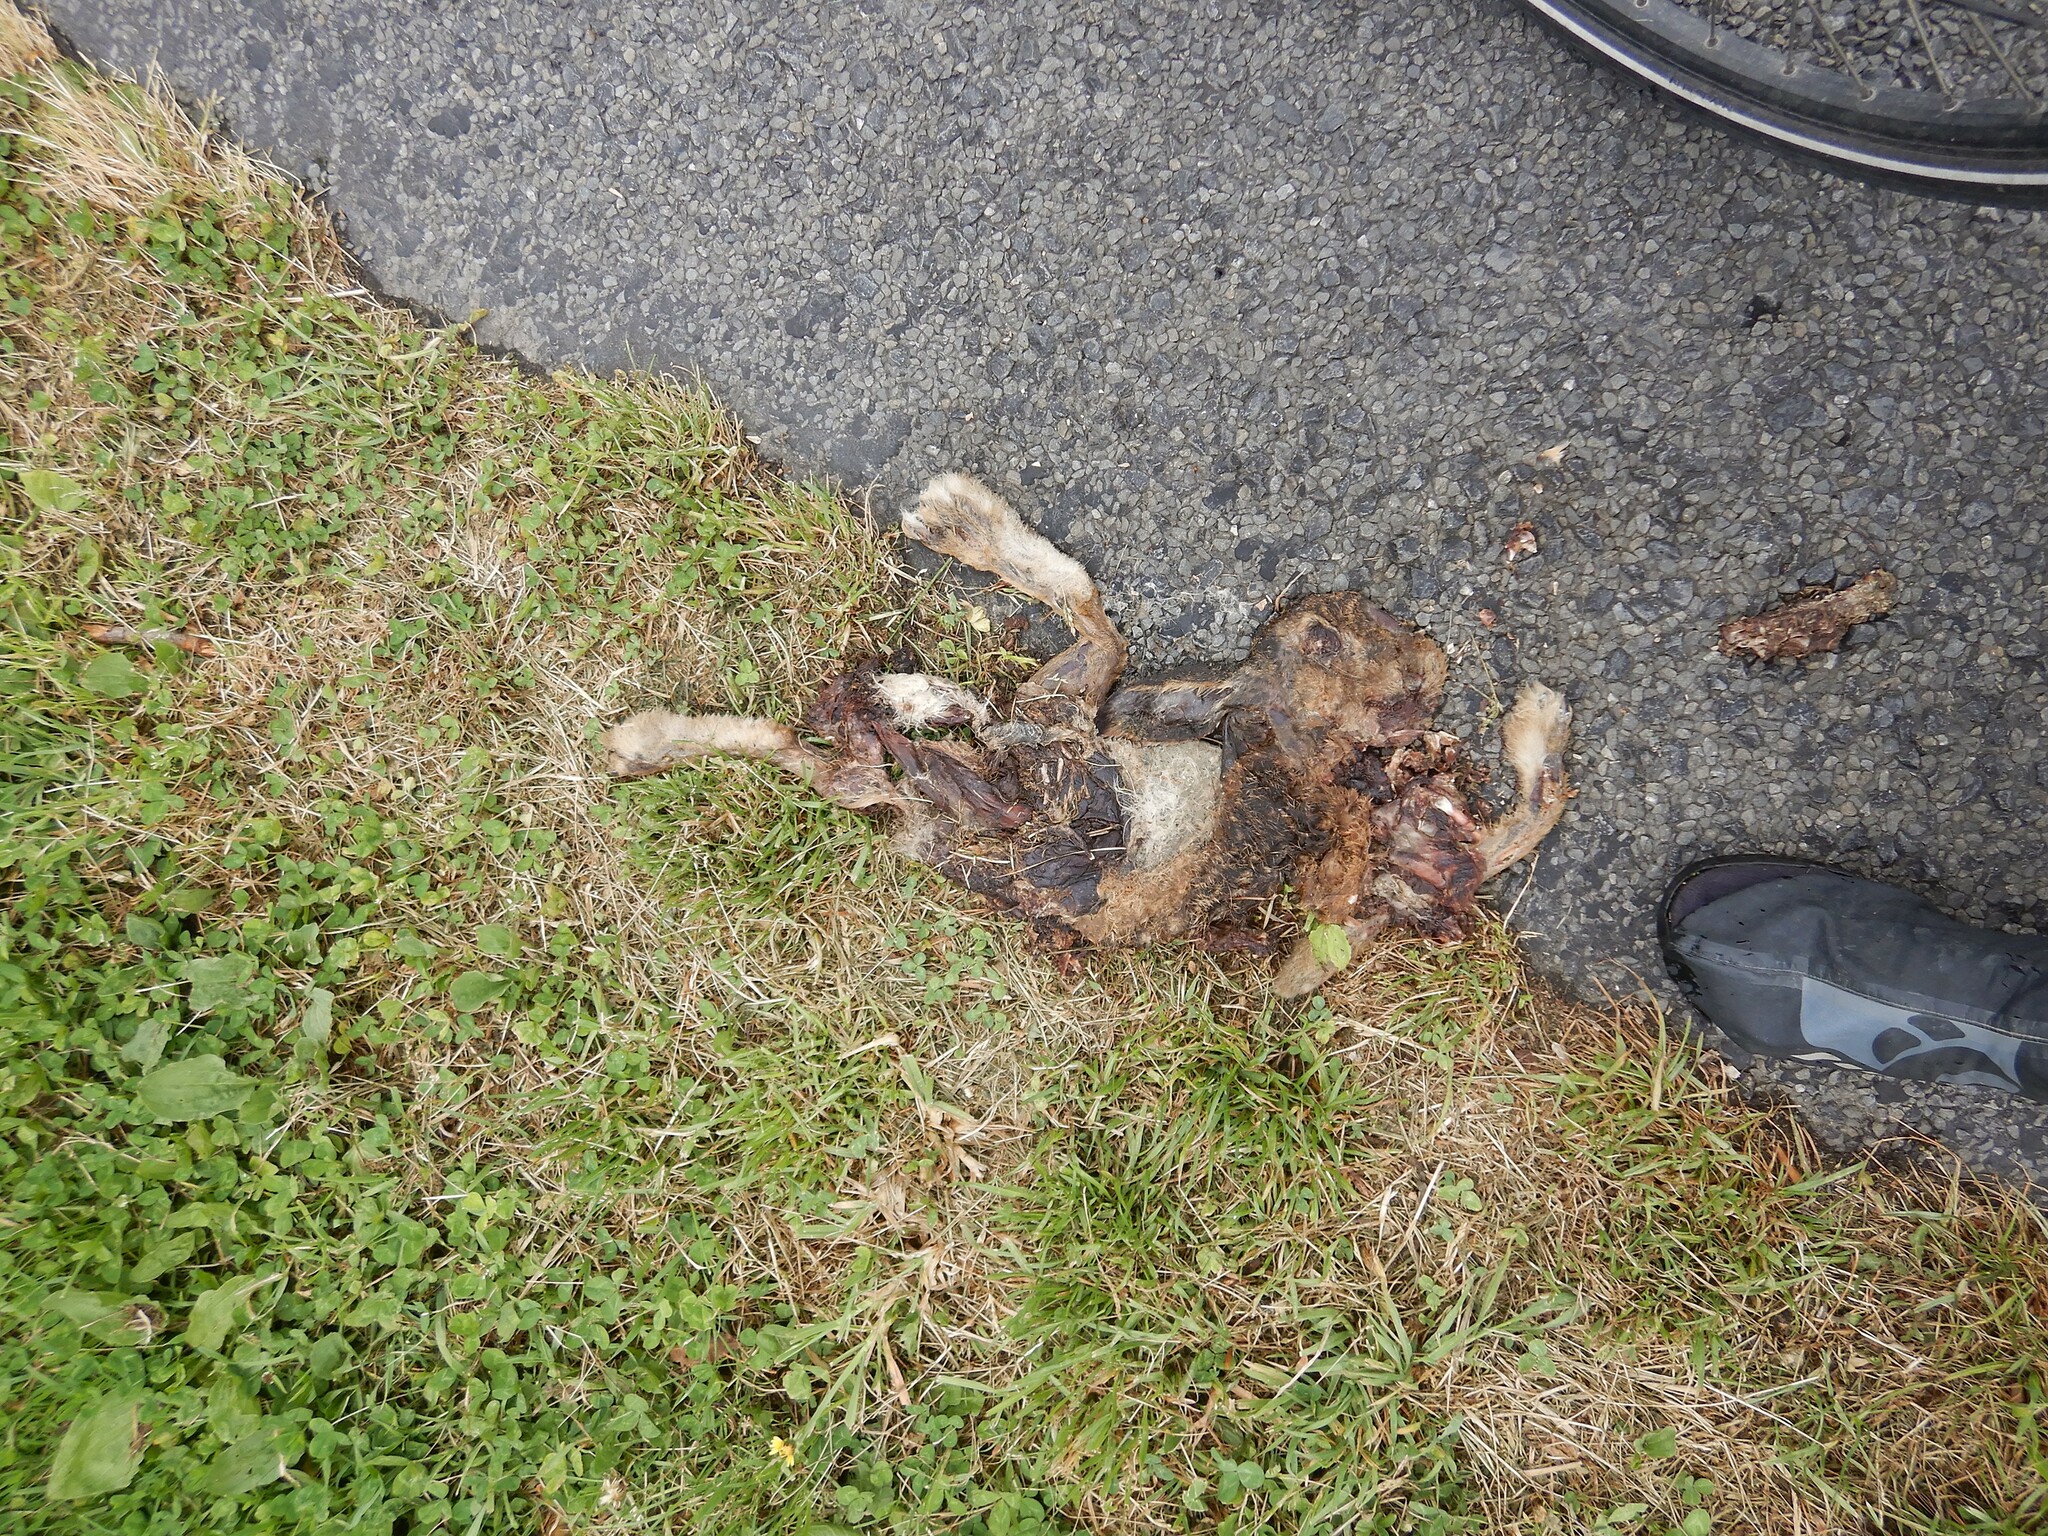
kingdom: Animalia
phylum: Chordata
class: Mammalia
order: Lagomorpha
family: Leporidae
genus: Lepus
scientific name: Lepus europaeus
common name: European hare
